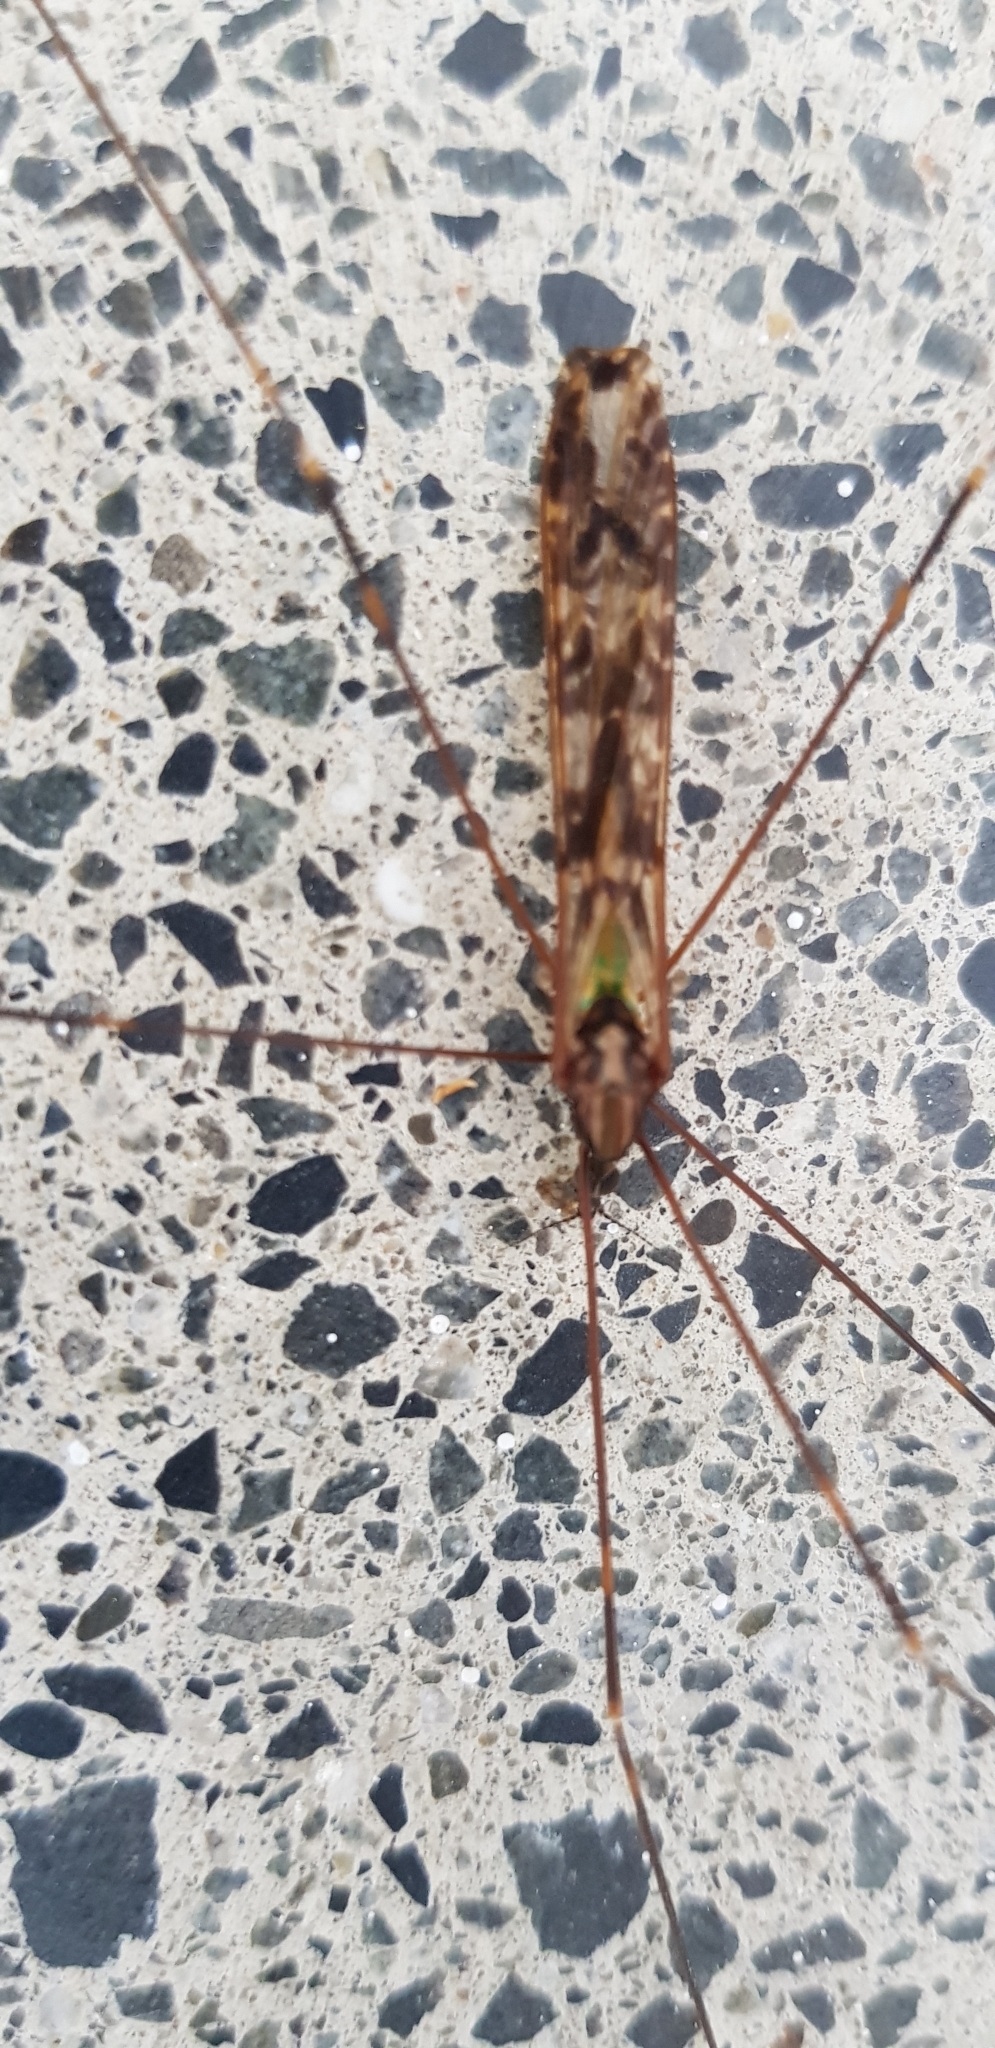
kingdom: Animalia
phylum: Arthropoda
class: Insecta
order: Diptera
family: Limoniidae
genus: Discobola
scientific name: Discobola dohrni
